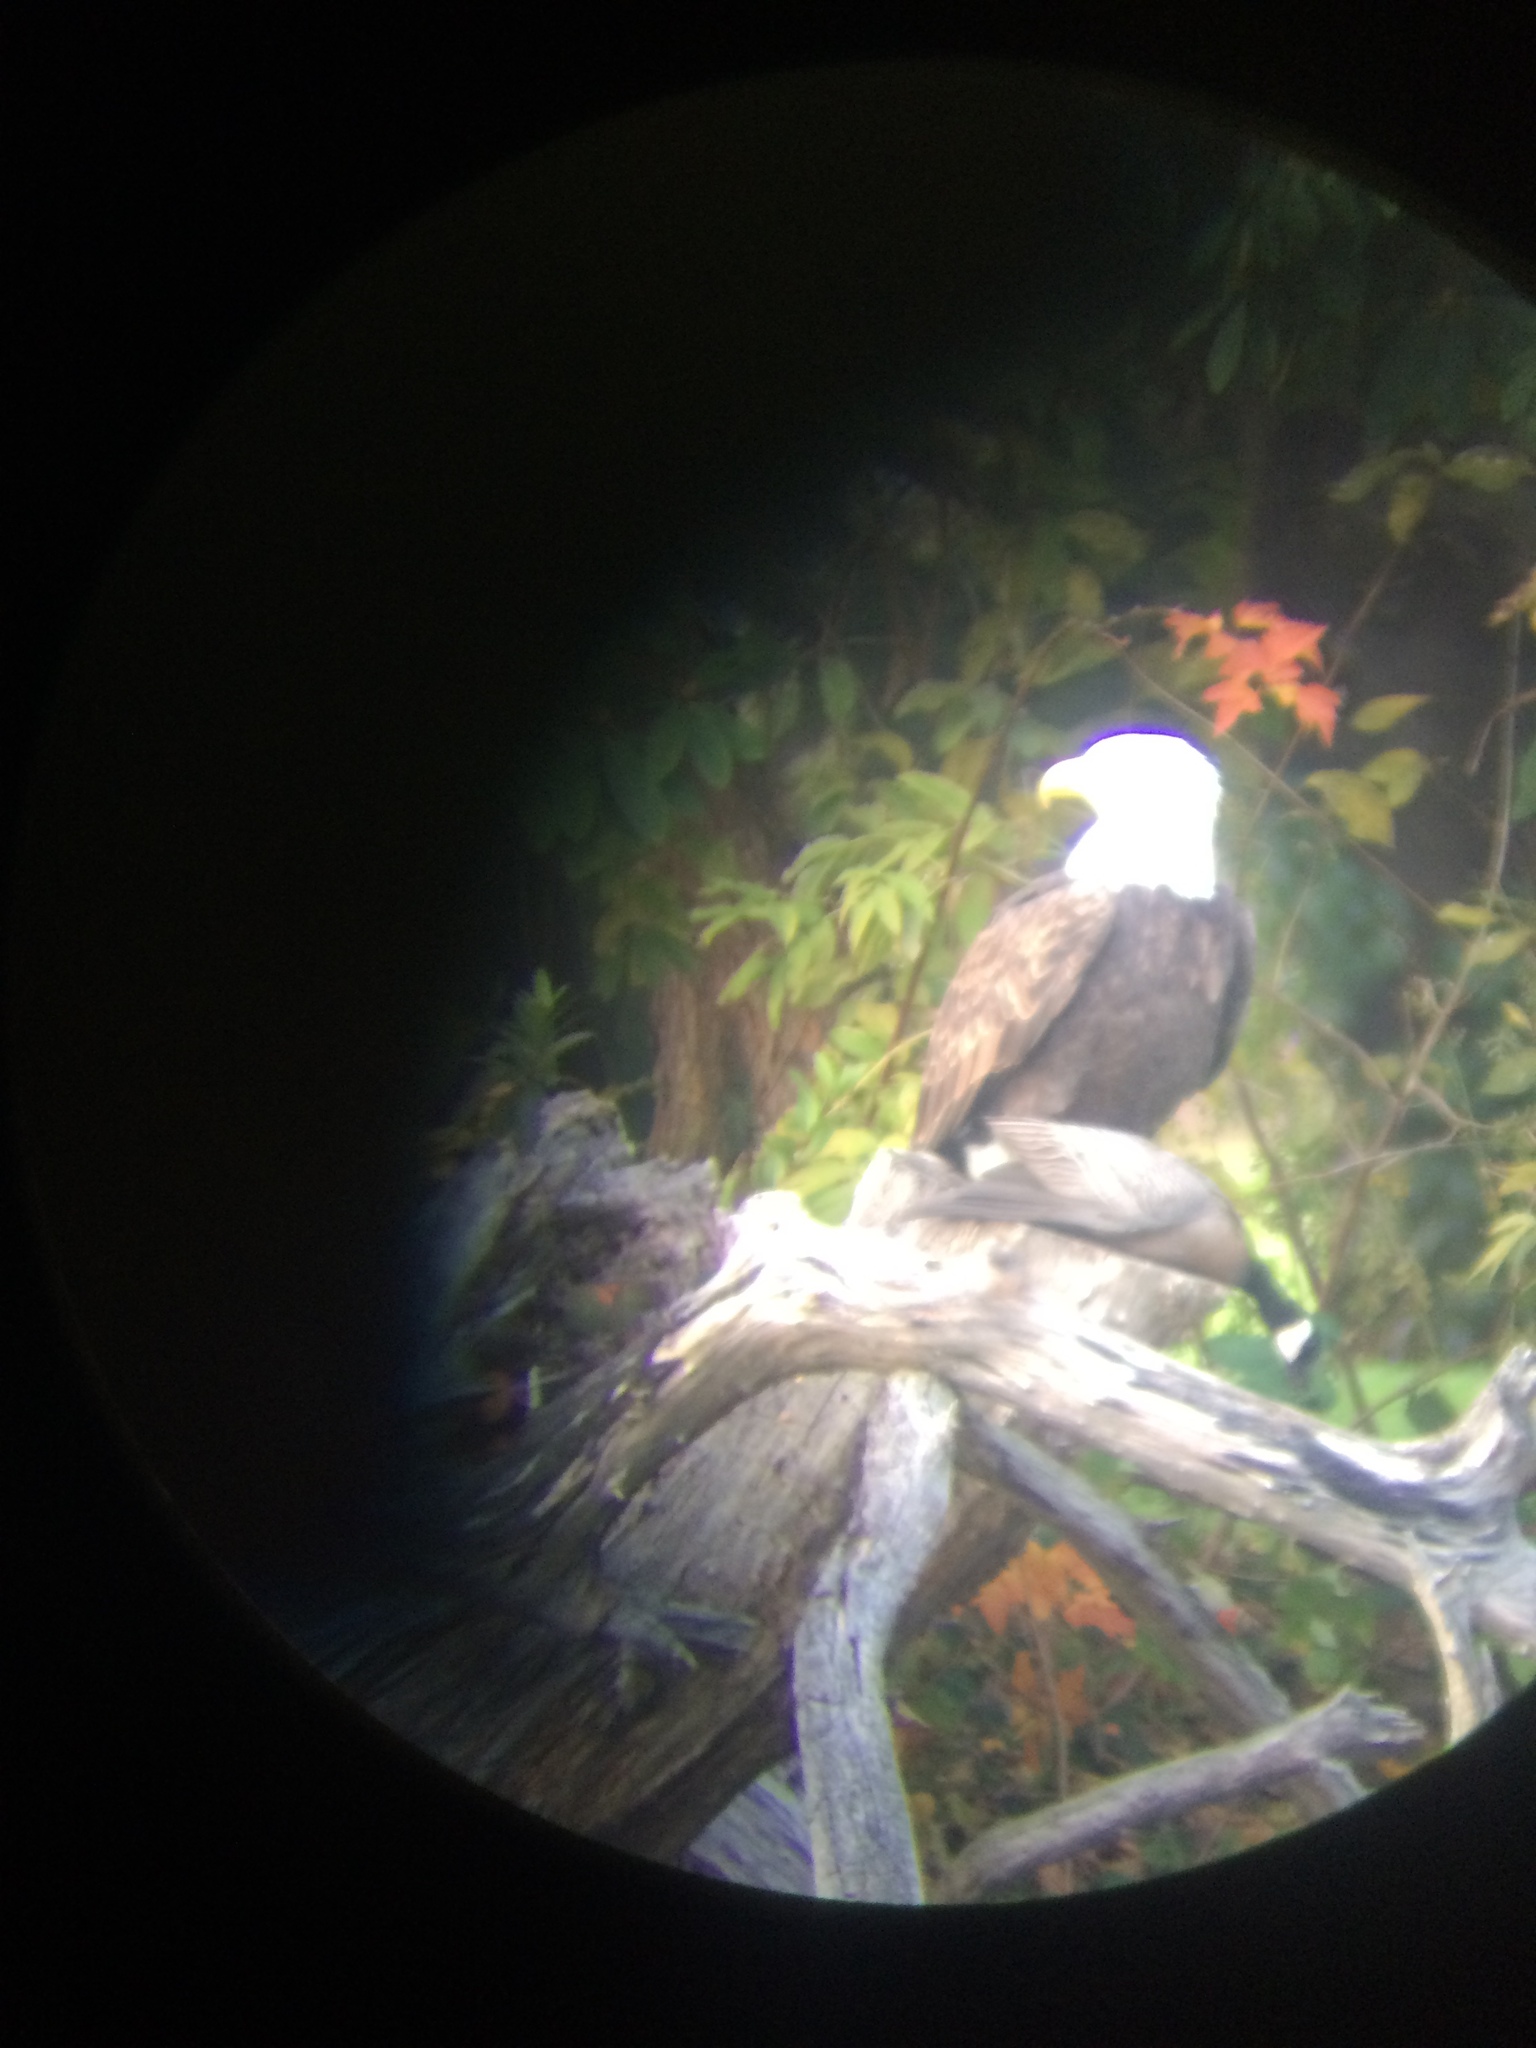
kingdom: Animalia
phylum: Chordata
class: Aves
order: Accipitriformes
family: Accipitridae
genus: Haliaeetus
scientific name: Haliaeetus leucocephalus
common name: Bald eagle
